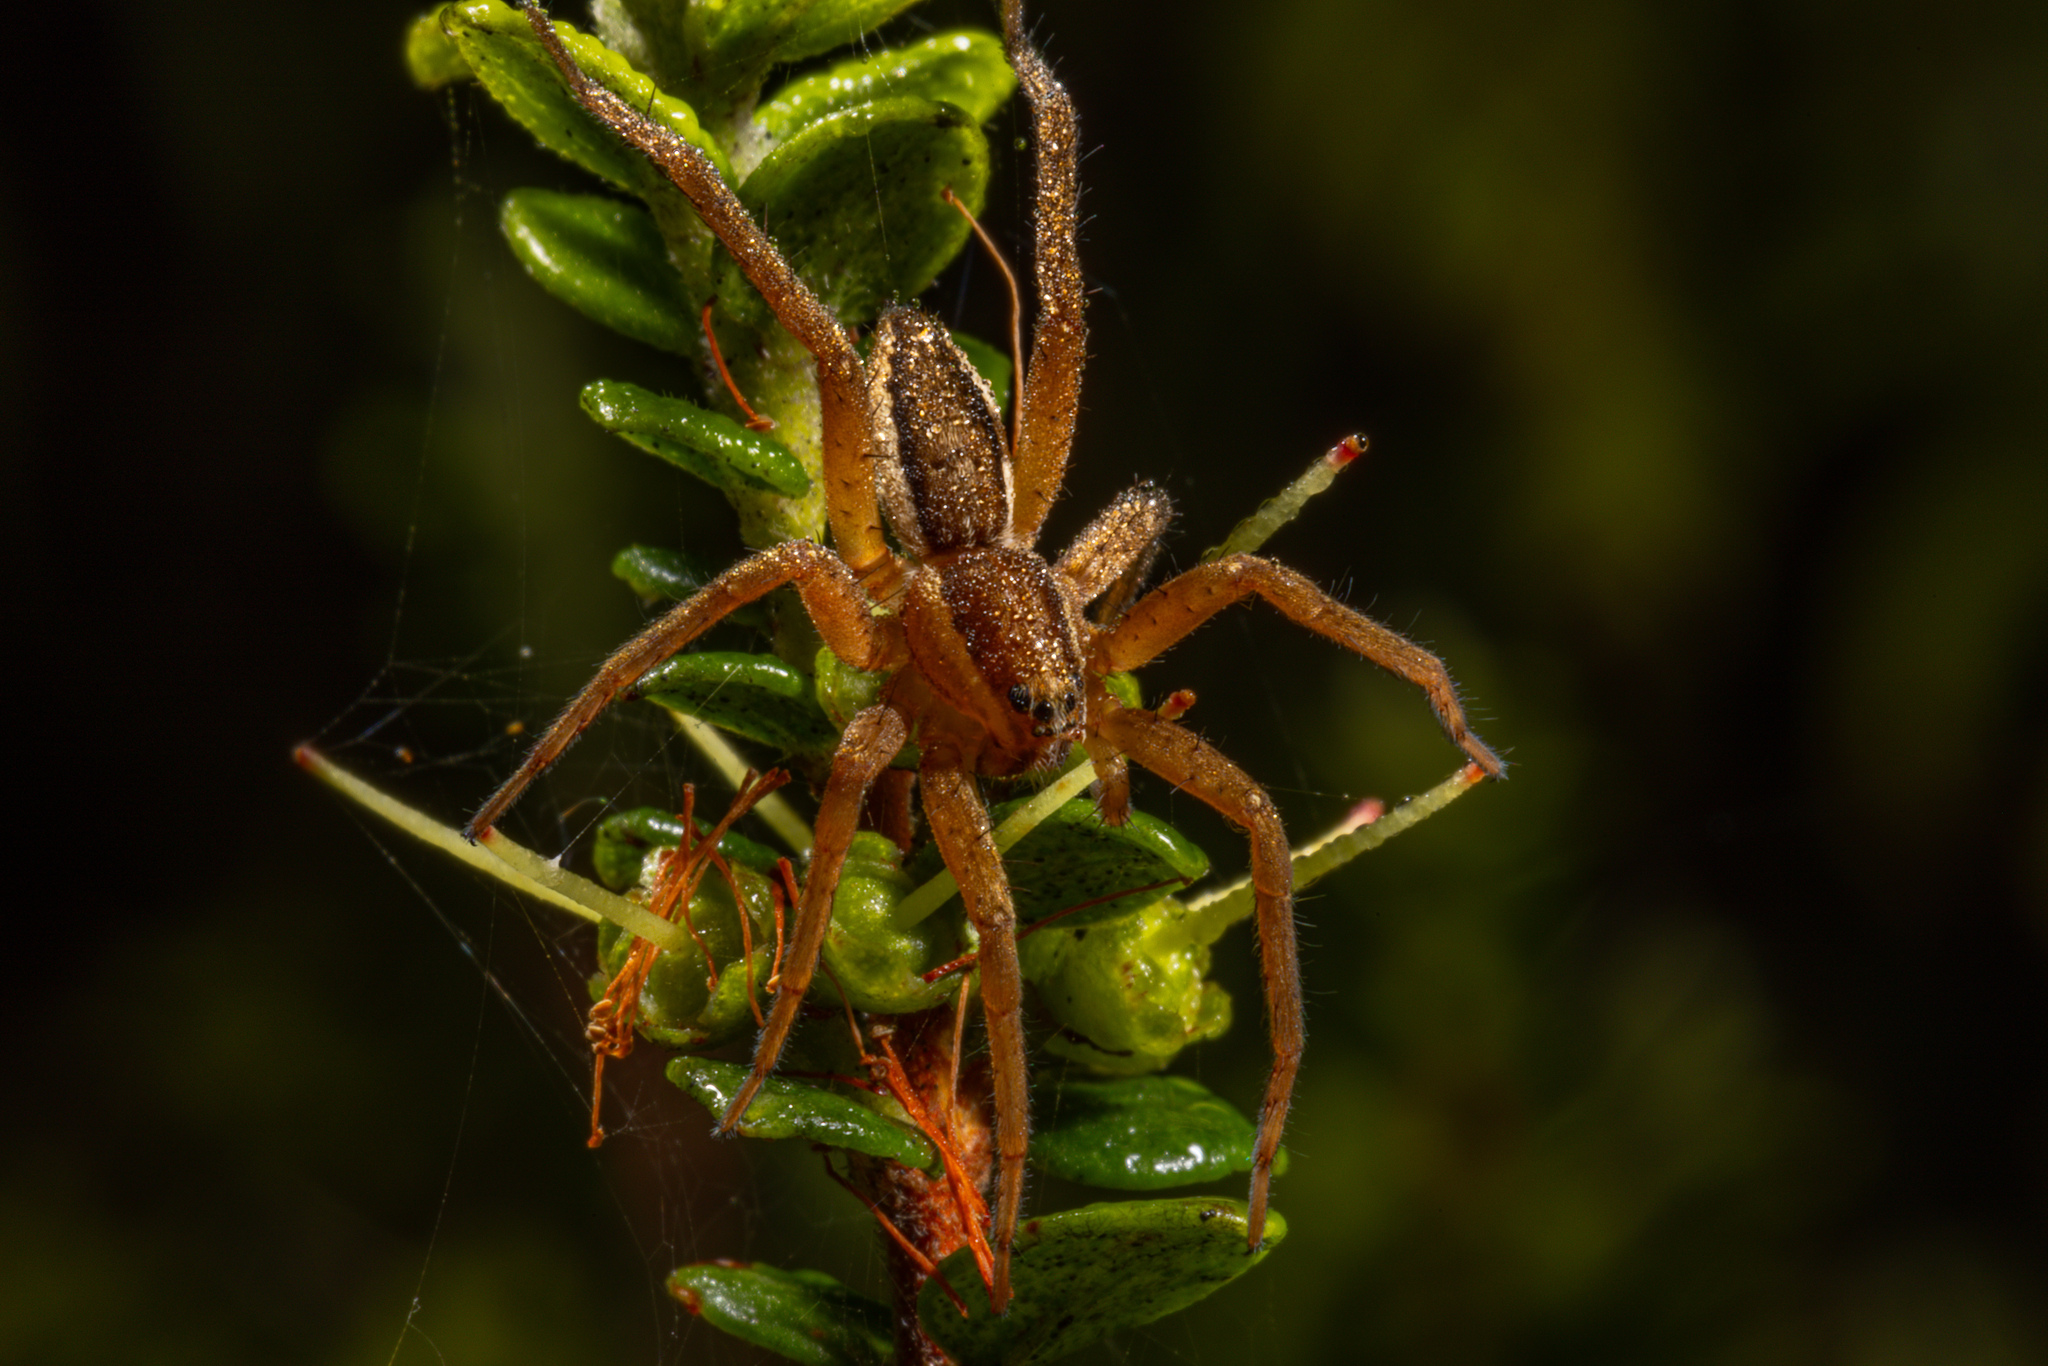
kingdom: Animalia
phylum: Arthropoda
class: Arachnida
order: Araneae
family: Pisauridae
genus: Dolomedes
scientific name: Dolomedes minor
